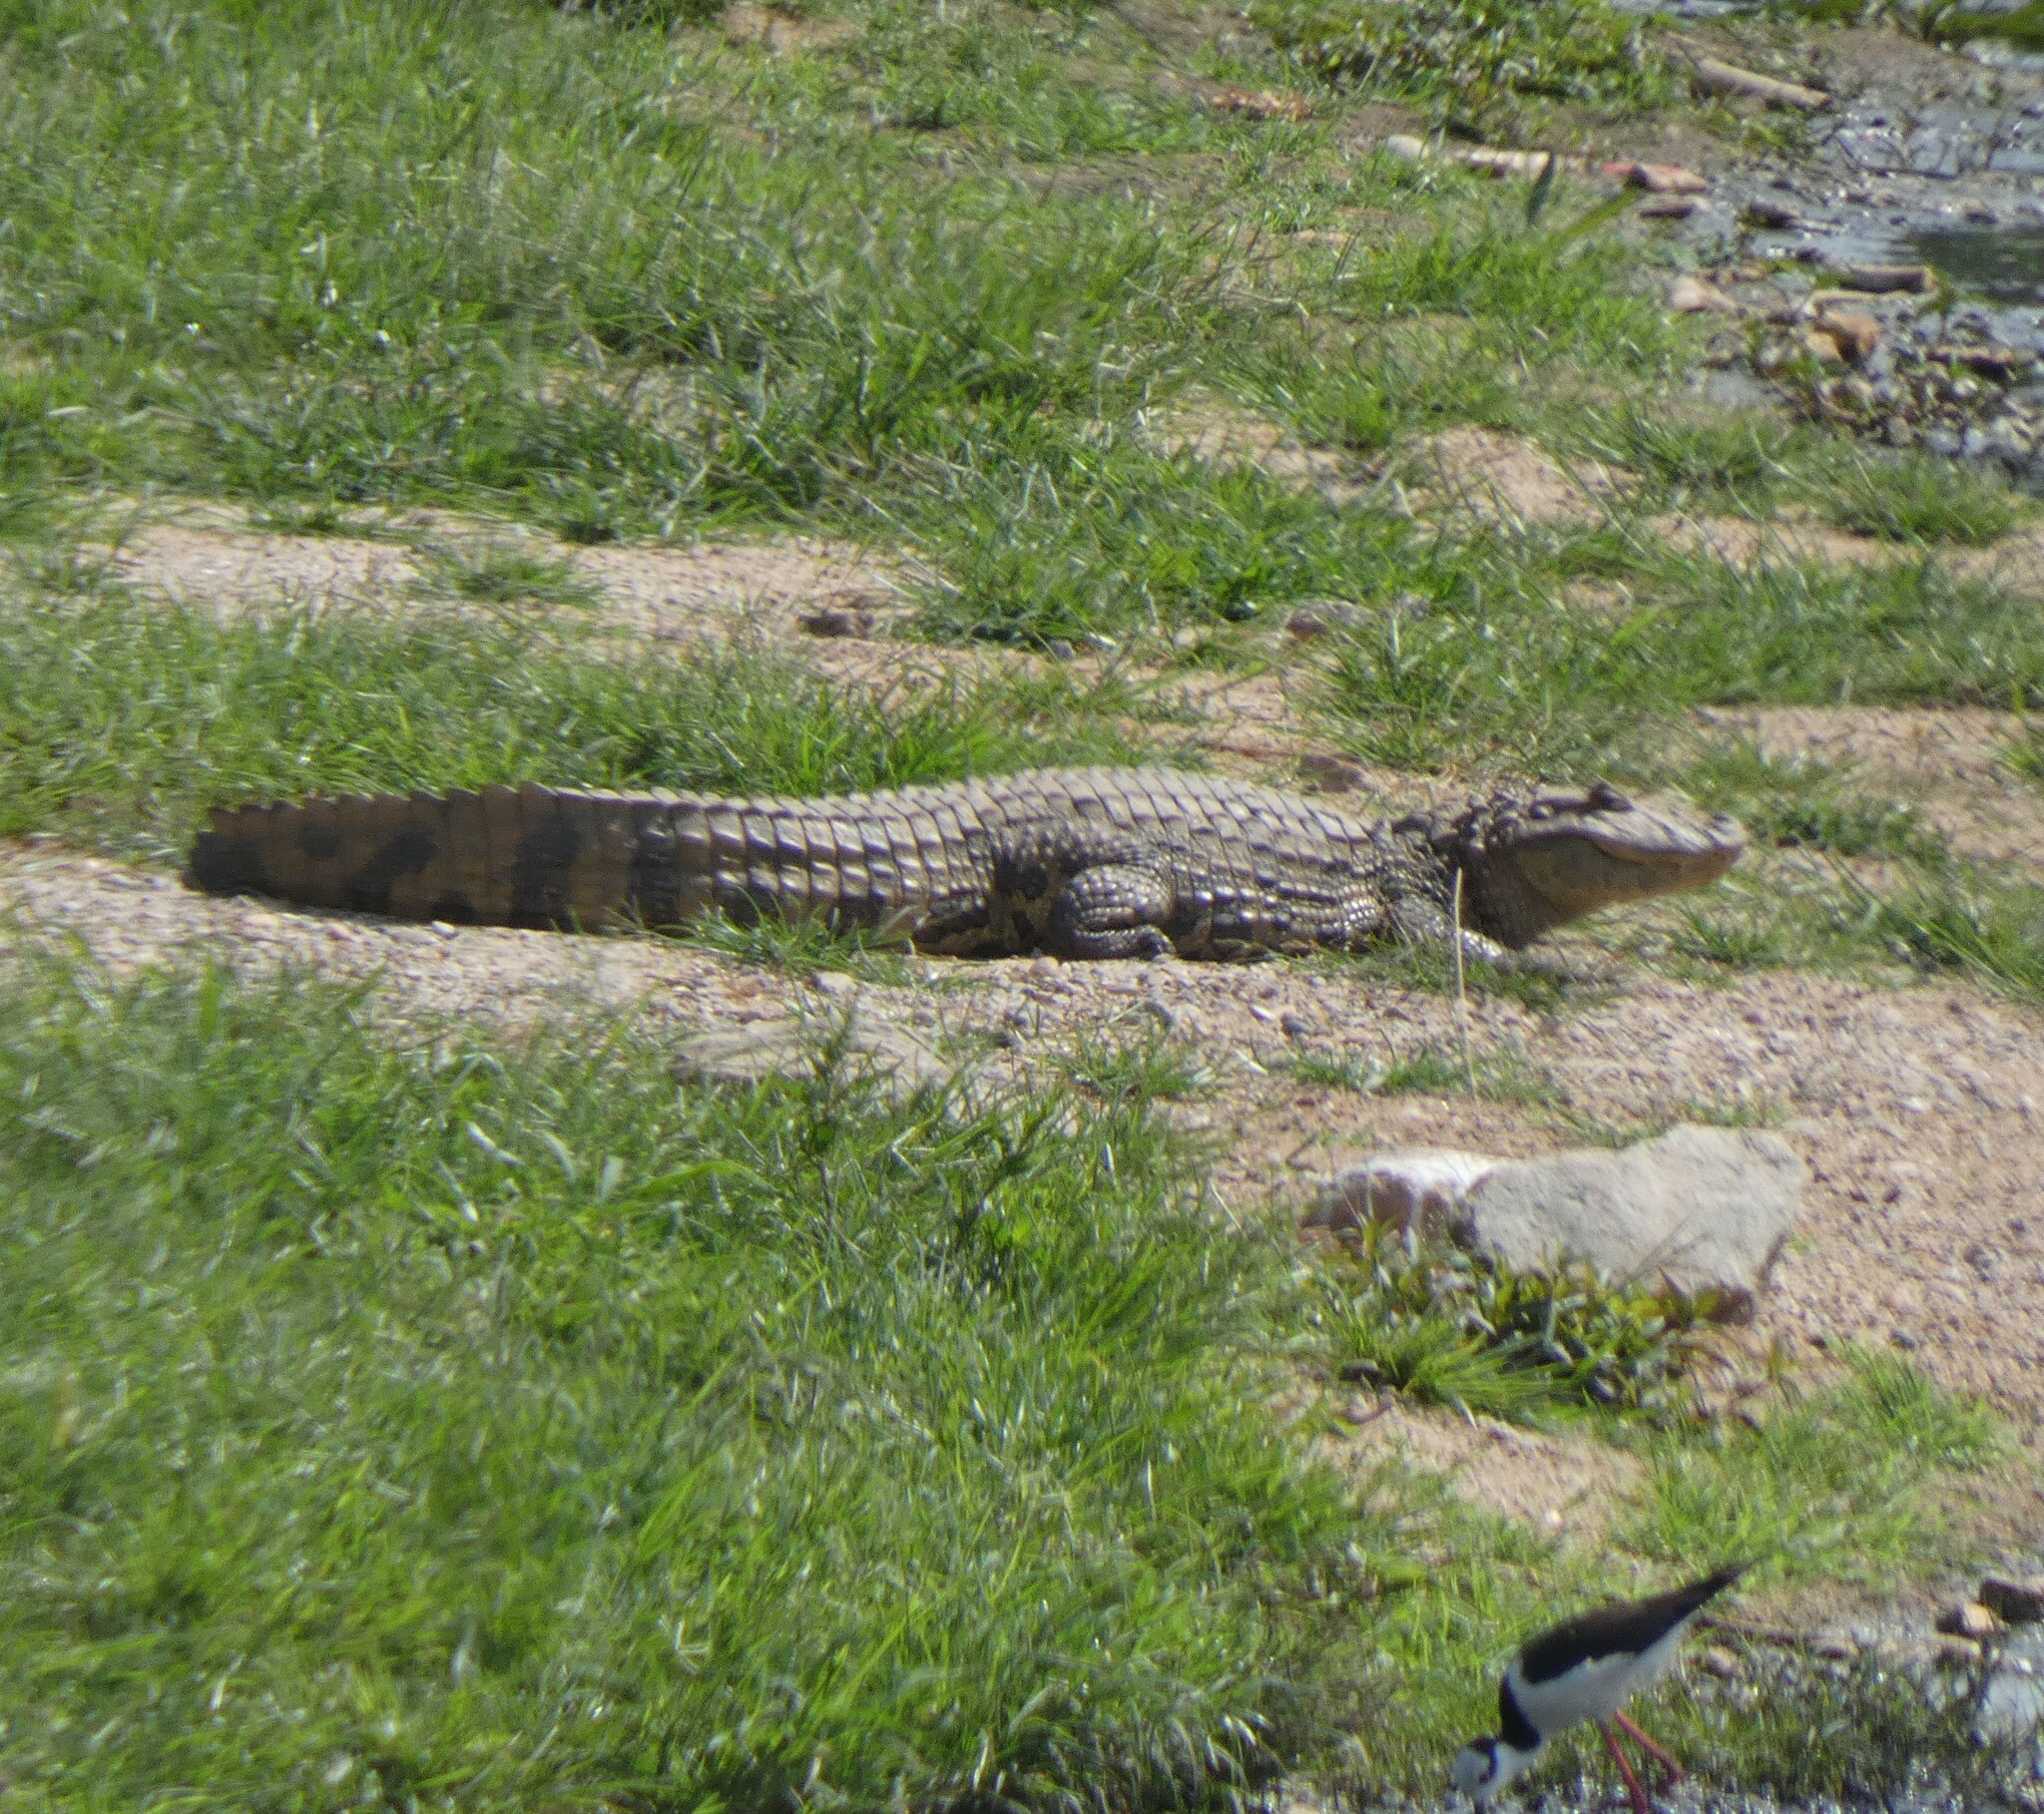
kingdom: Animalia
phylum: Chordata
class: Crocodylia
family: Alligatoridae
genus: Caiman
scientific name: Caiman latirostris
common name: Broad-snouted caiman
